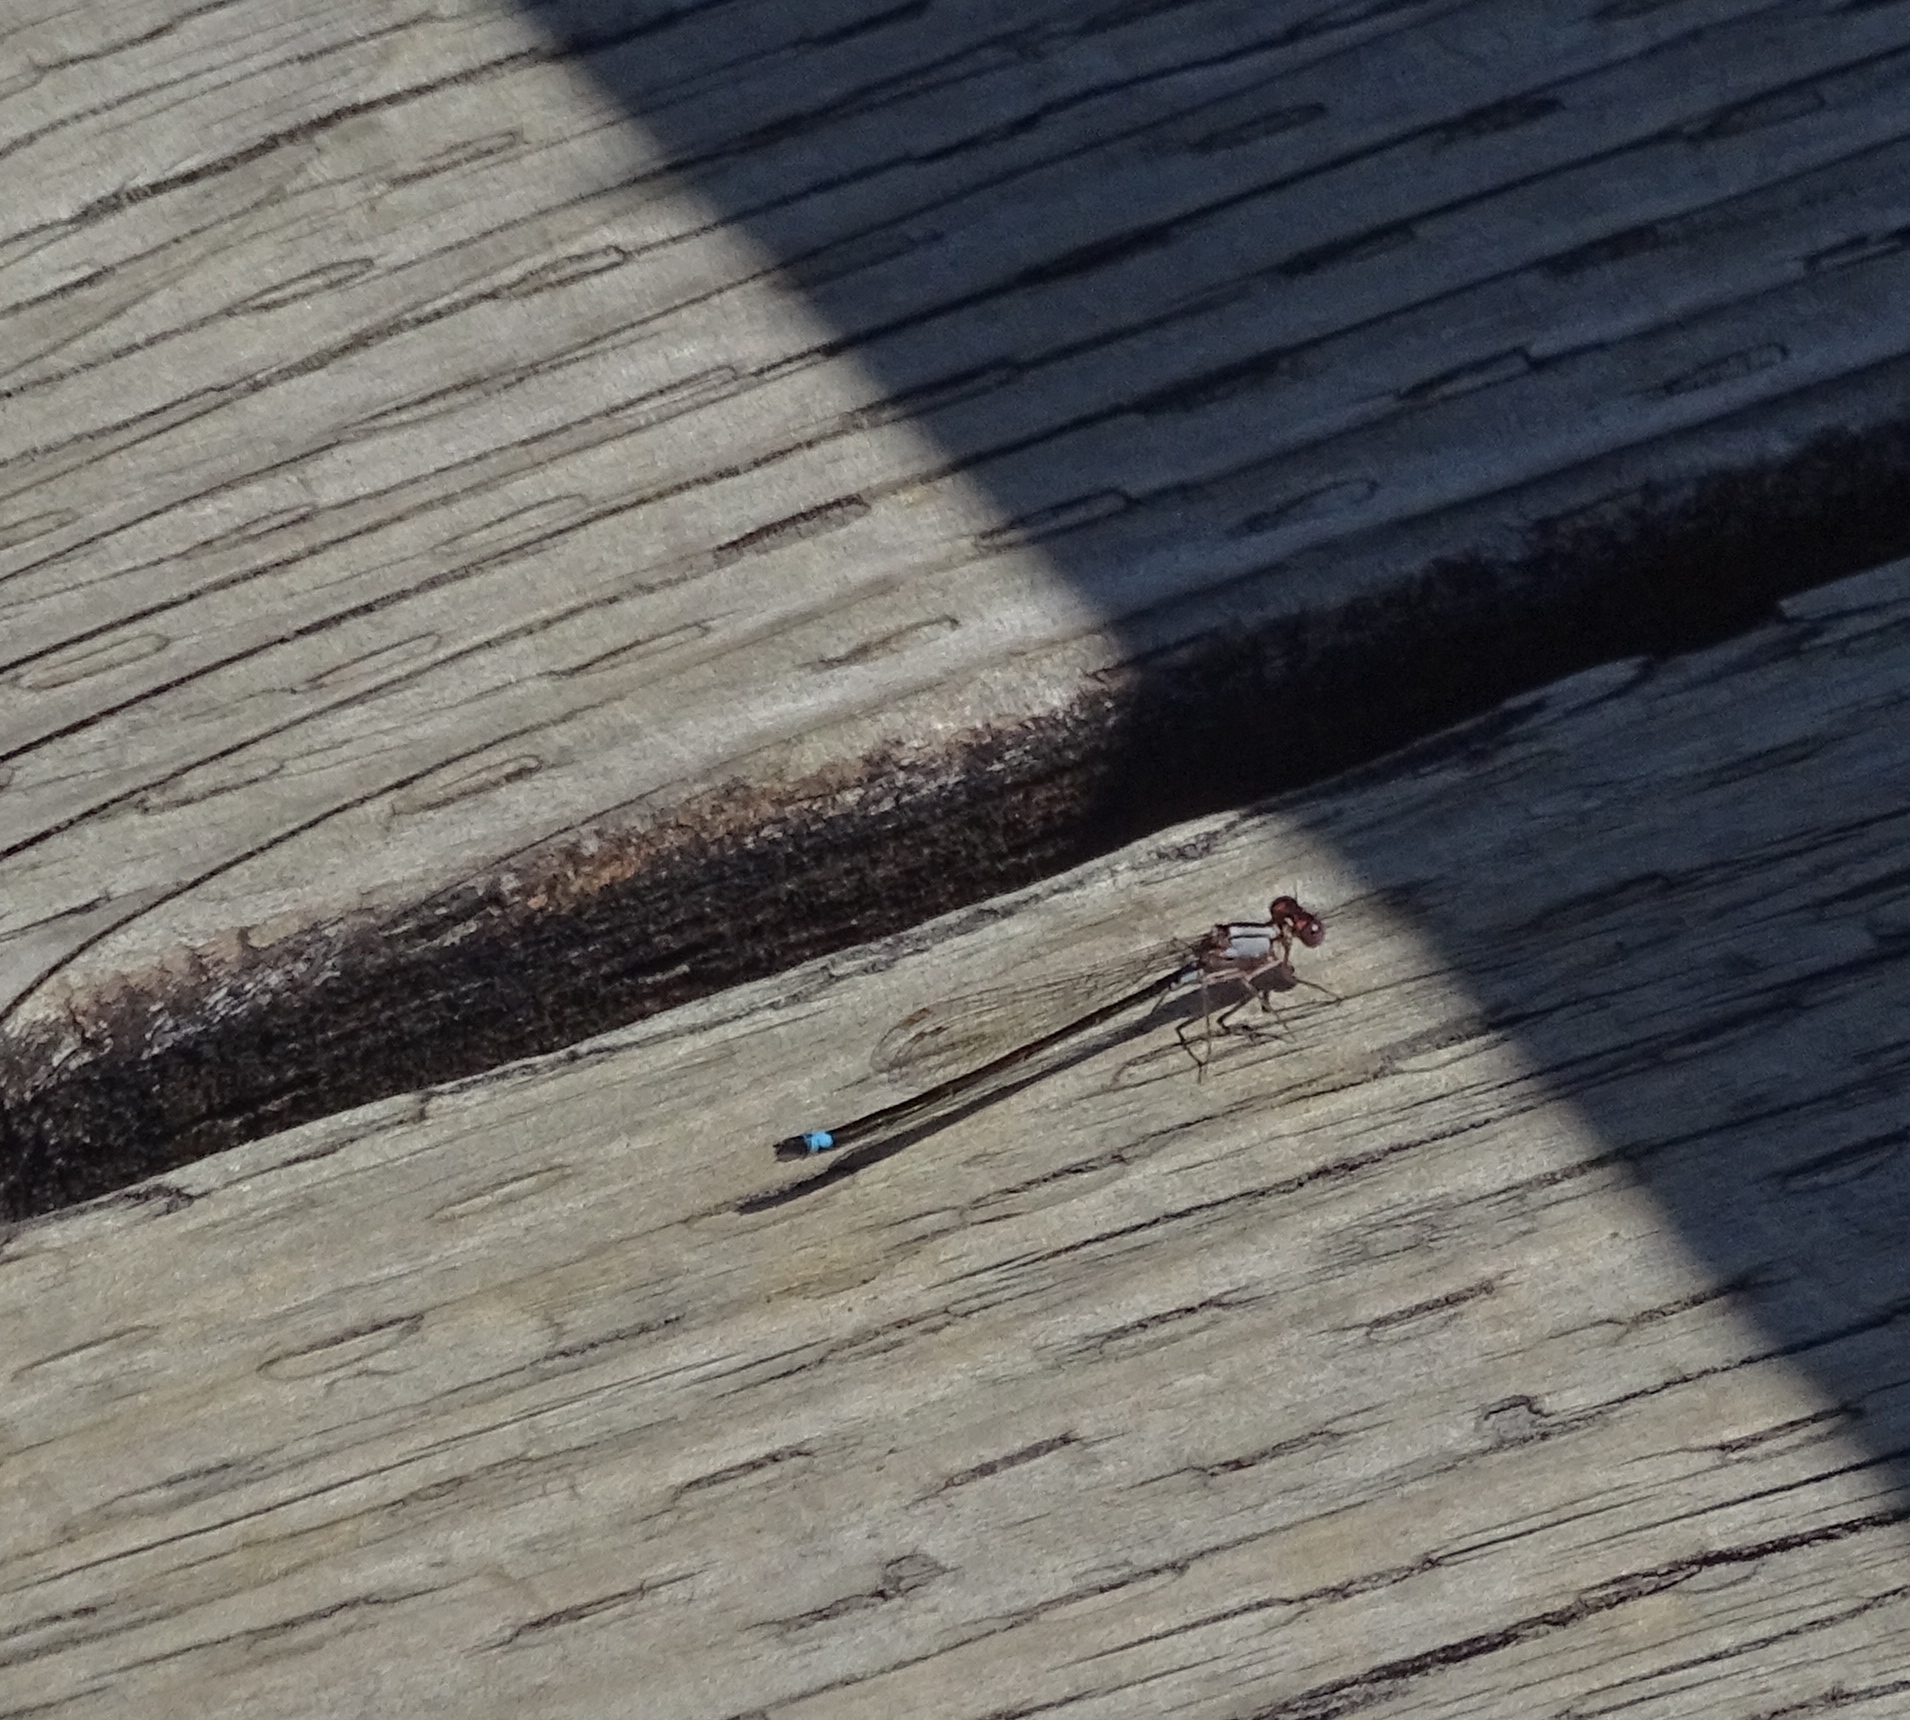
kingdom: Animalia
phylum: Arthropoda
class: Insecta
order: Odonata
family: Coenagrionidae
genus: Ischnura
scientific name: Ischnura cervula
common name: Pacific forktail
